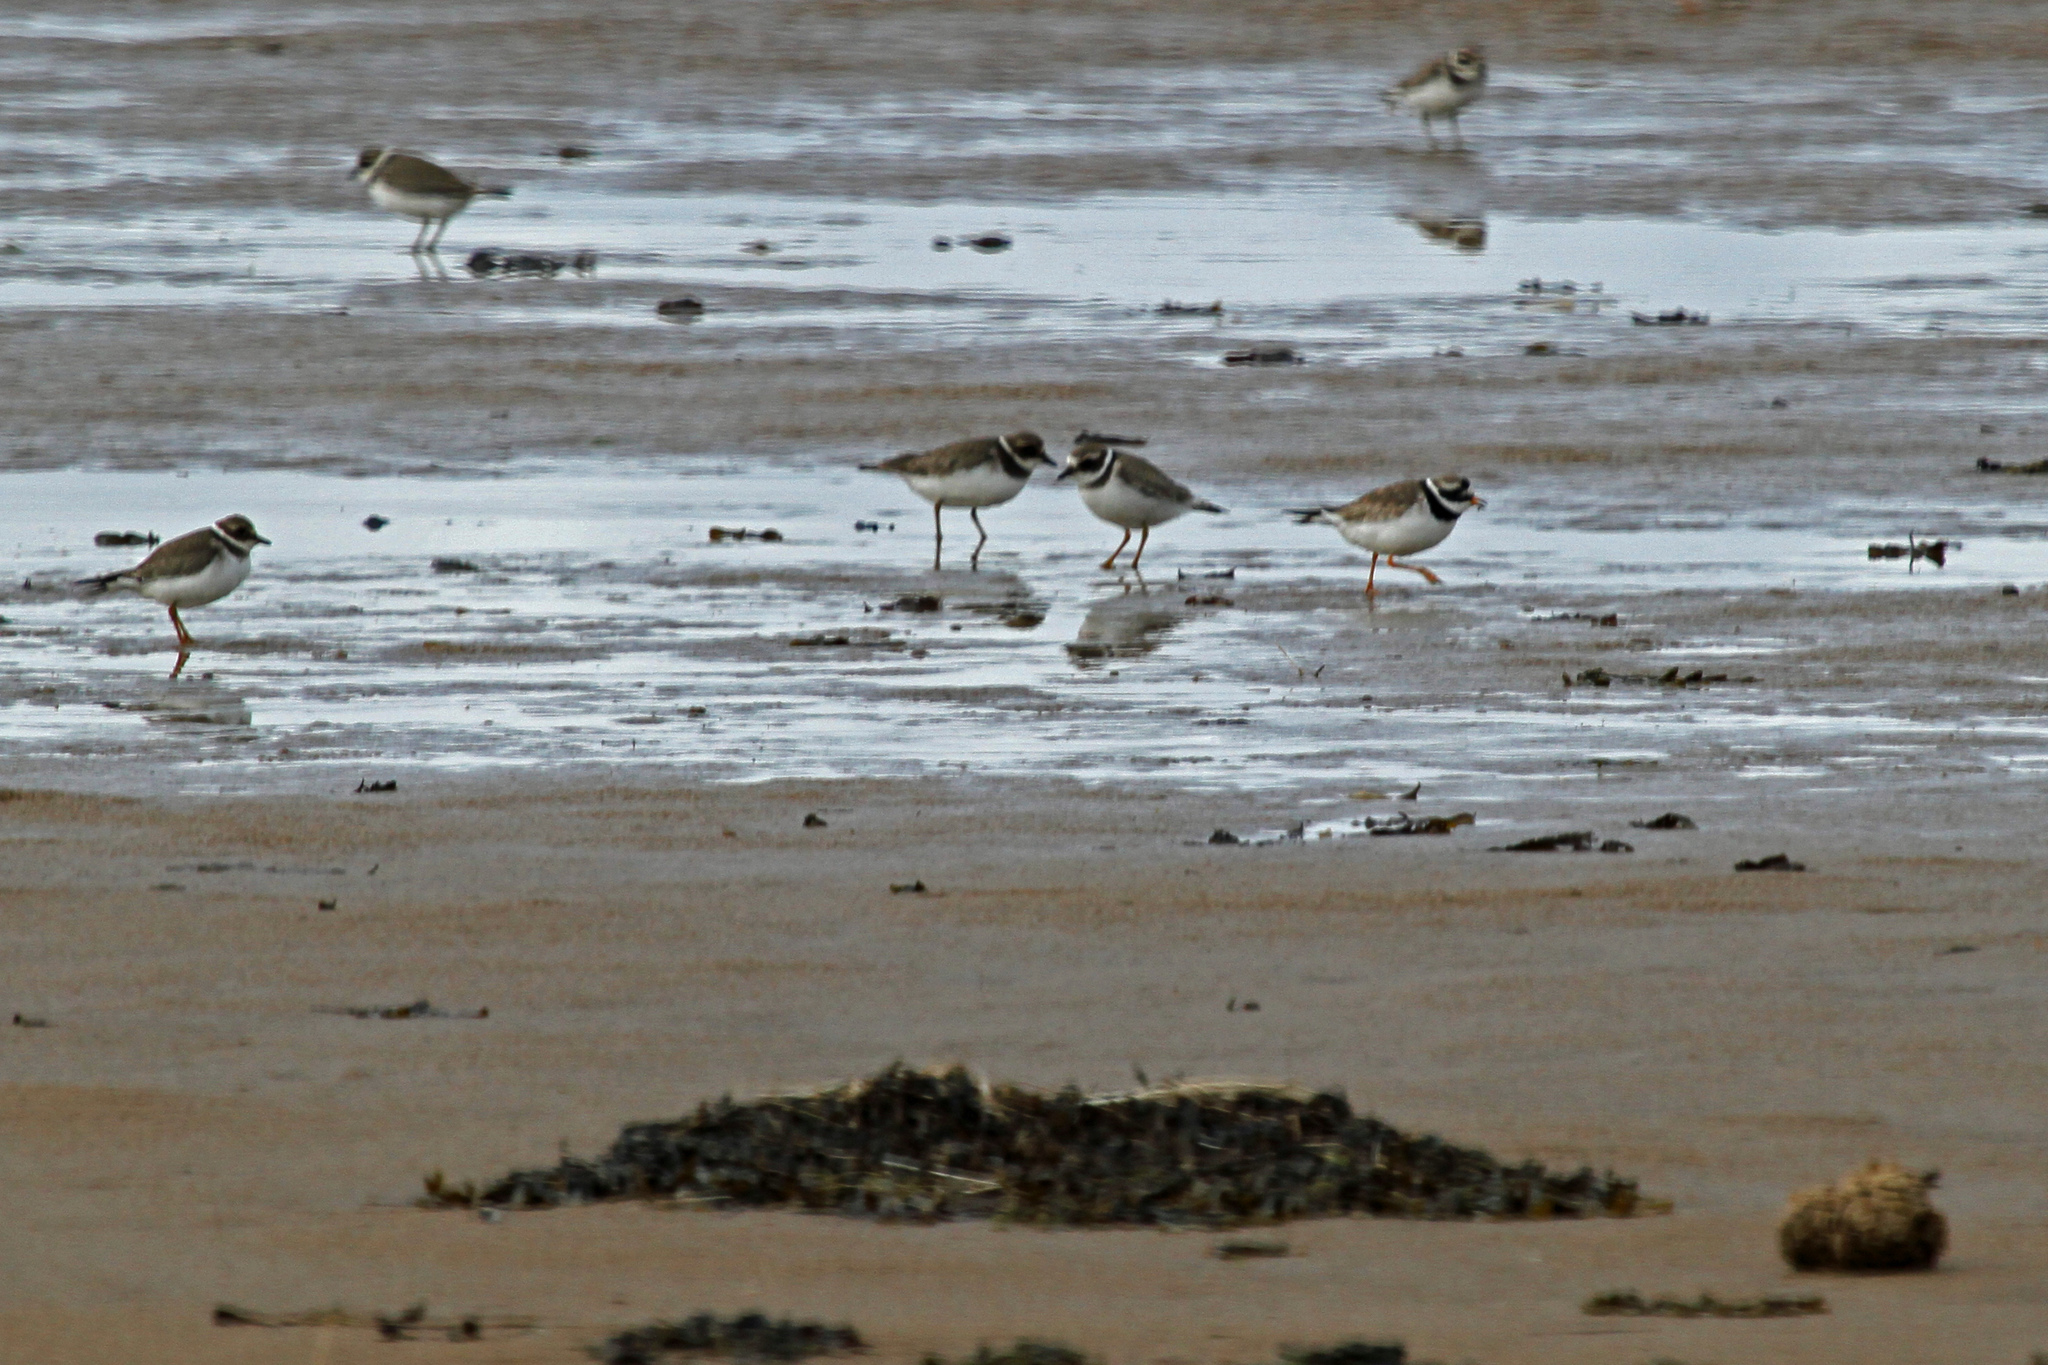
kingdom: Animalia
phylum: Chordata
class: Aves
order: Charadriiformes
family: Charadriidae
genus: Charadrius
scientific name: Charadrius hiaticula
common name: Common ringed plover
